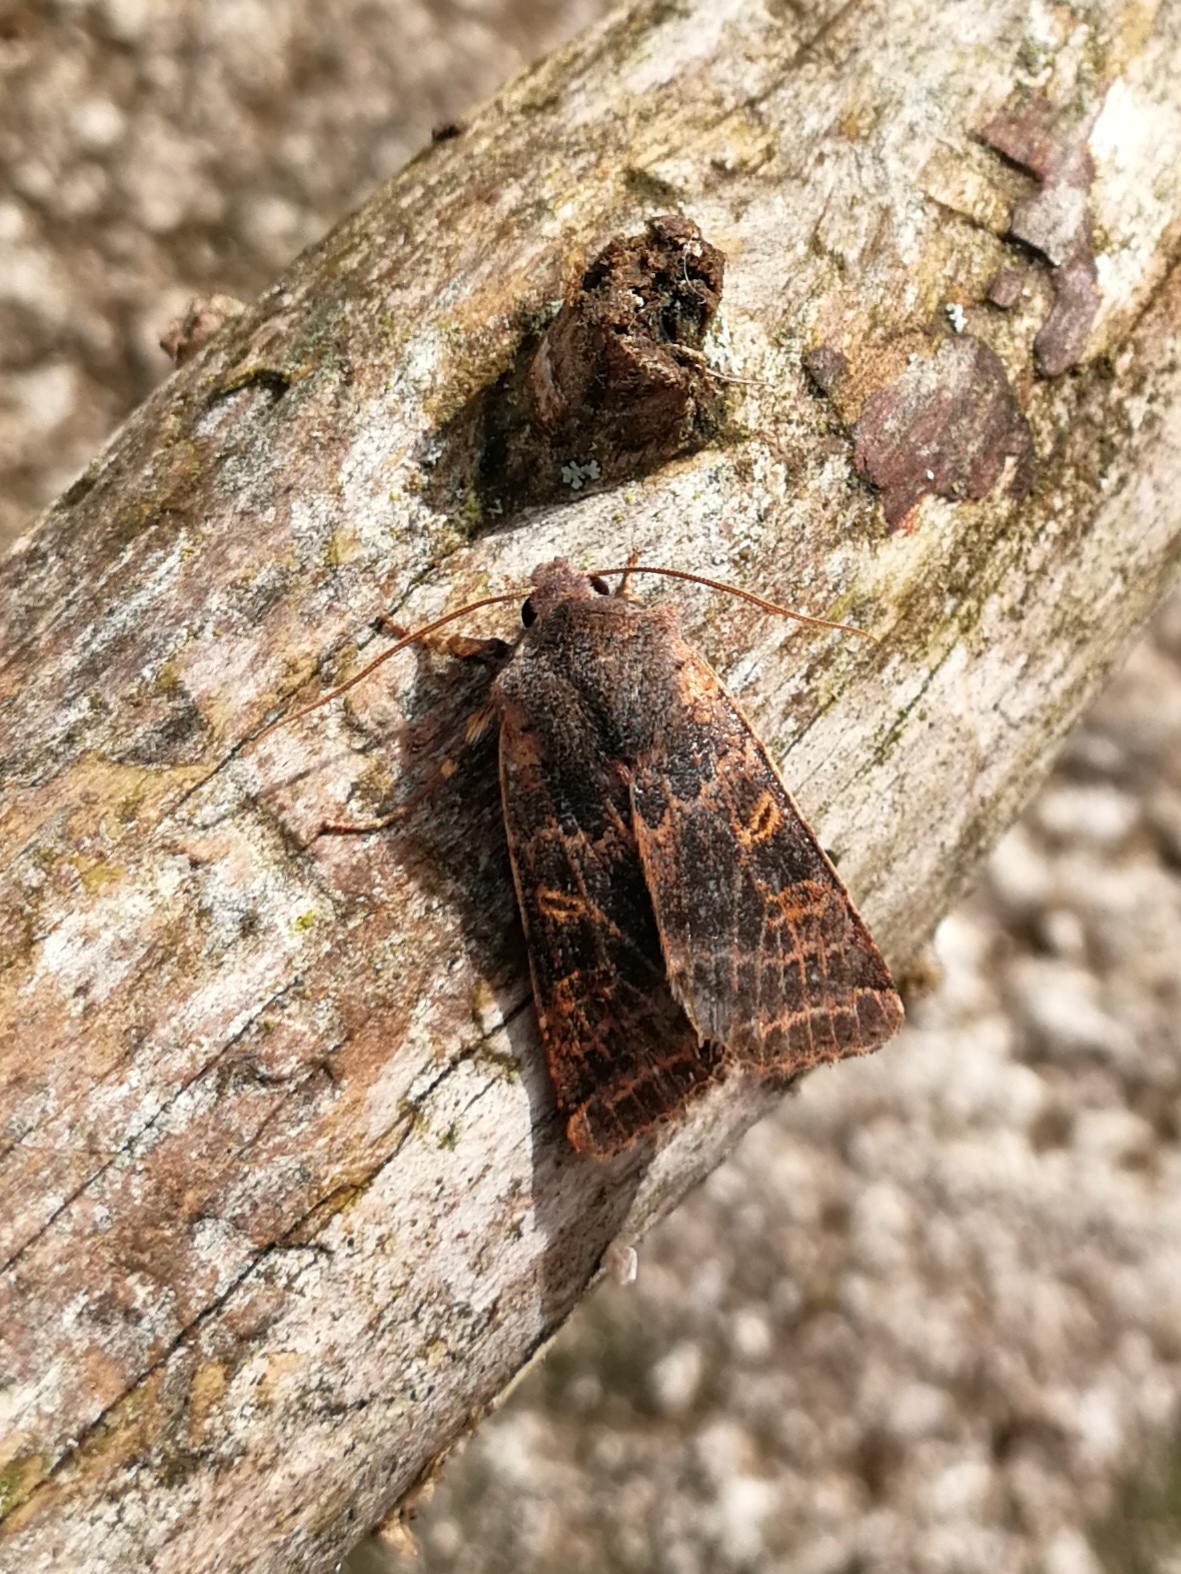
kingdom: Animalia
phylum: Arthropoda
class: Insecta
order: Lepidoptera
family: Noctuidae
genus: Agrochola
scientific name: Agrochola lychnidis
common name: Beaded chestnut
